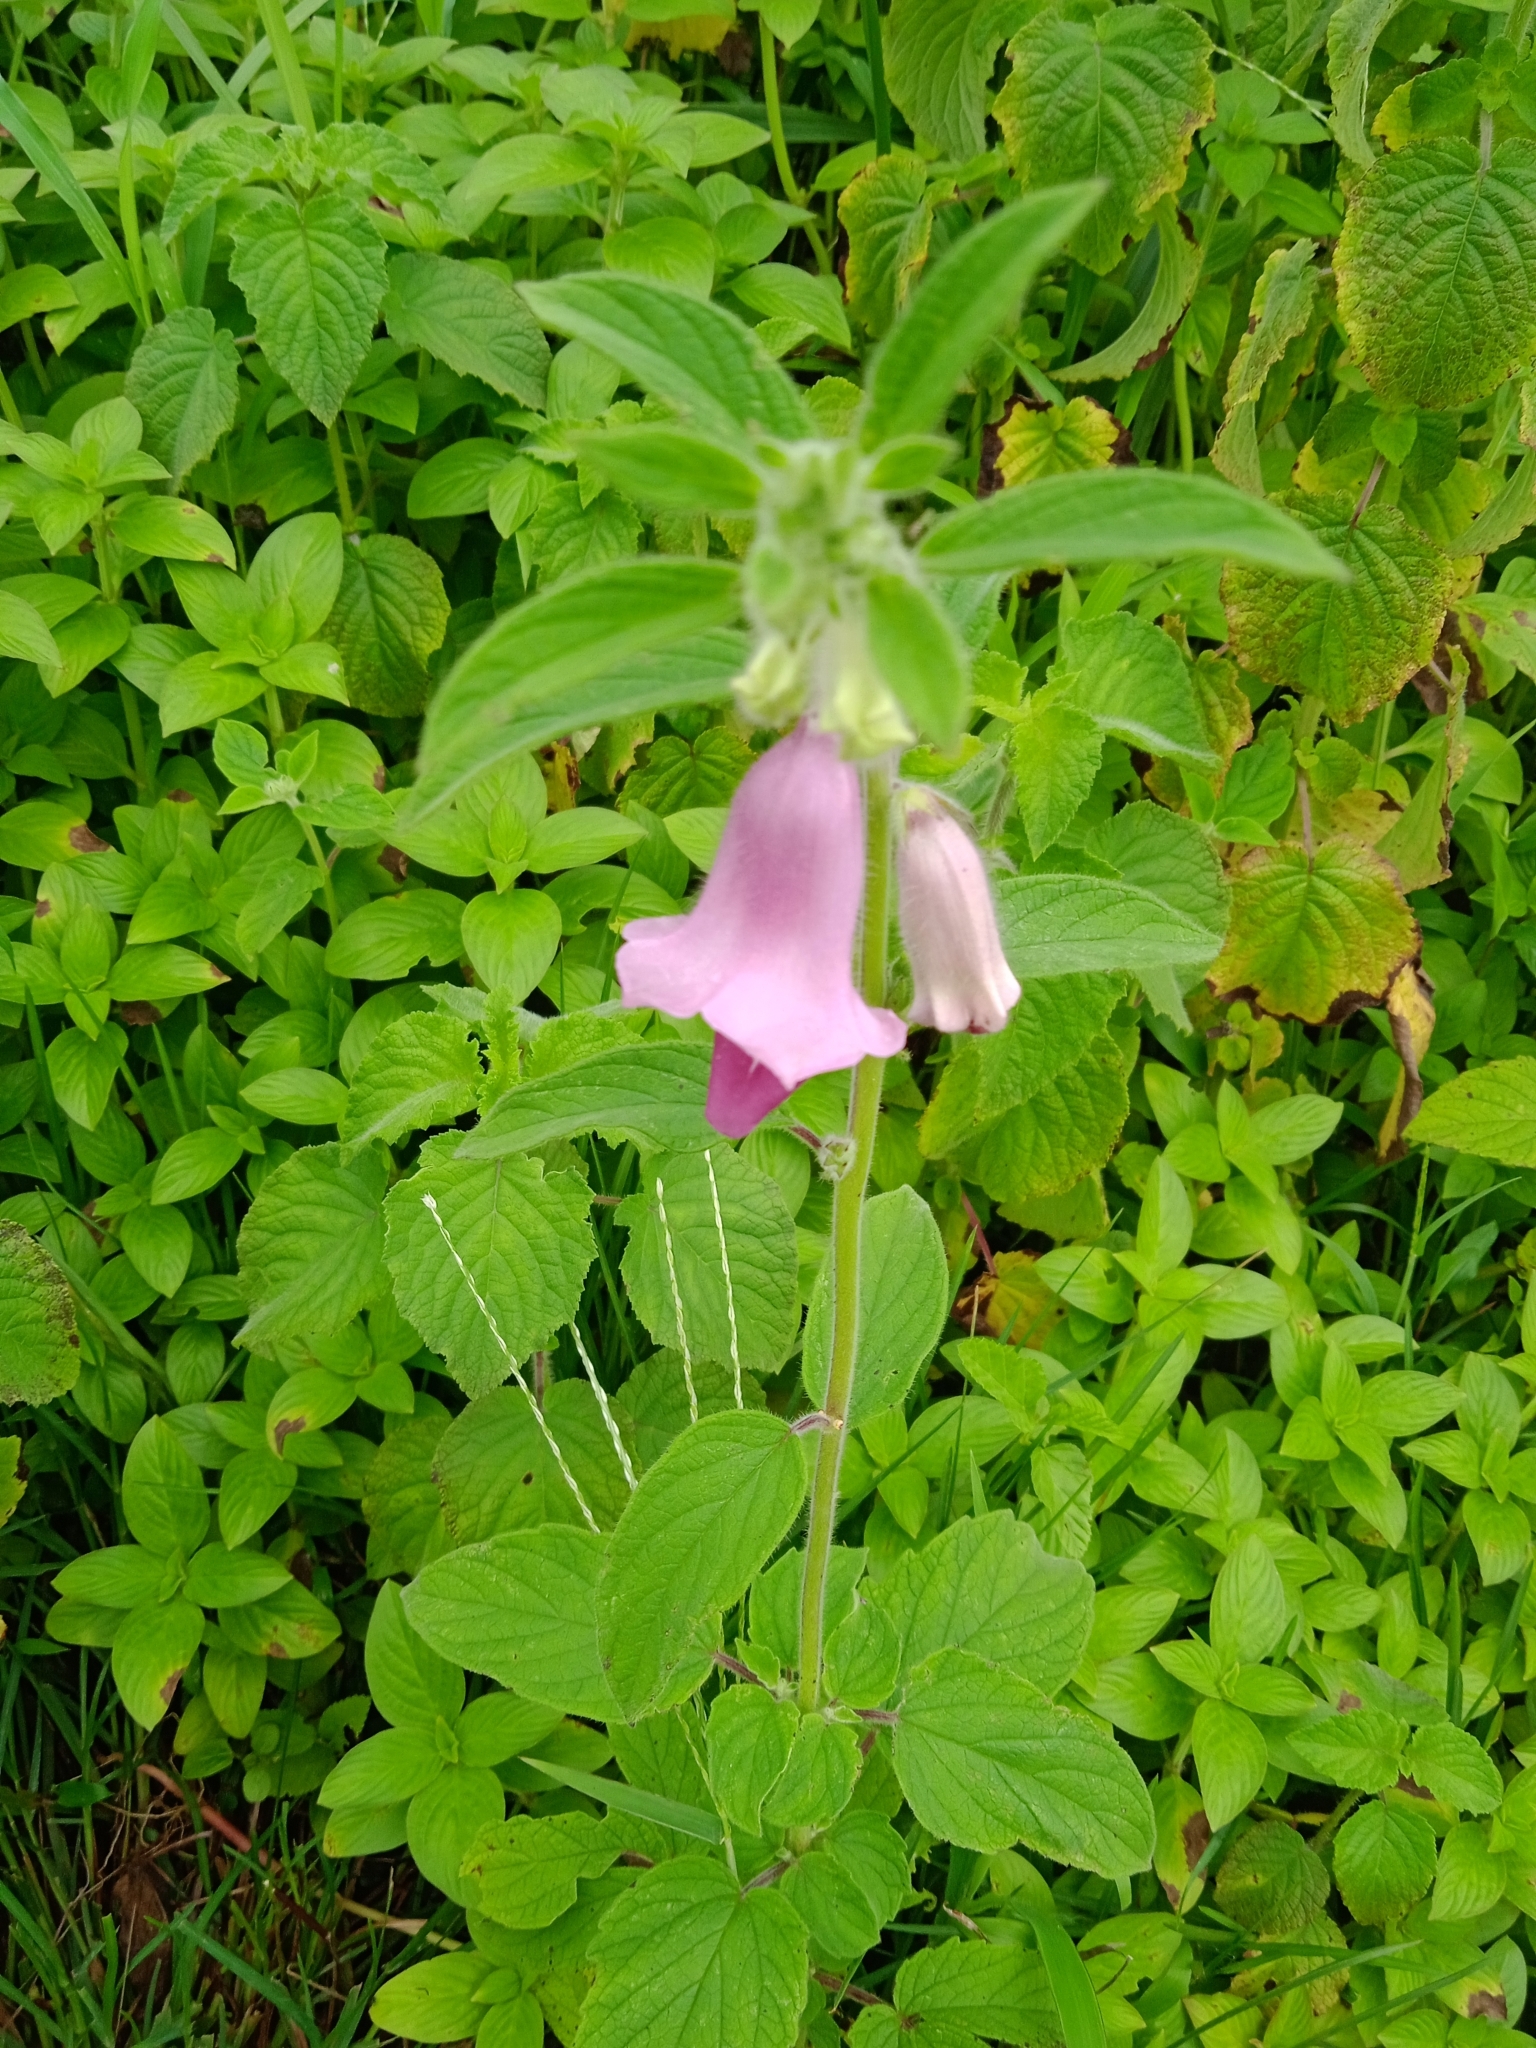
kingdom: Plantae
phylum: Tracheophyta
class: Magnoliopsida
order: Lamiales
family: Pedaliaceae
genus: Sesamum
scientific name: Sesamum indicum
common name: Sesame
